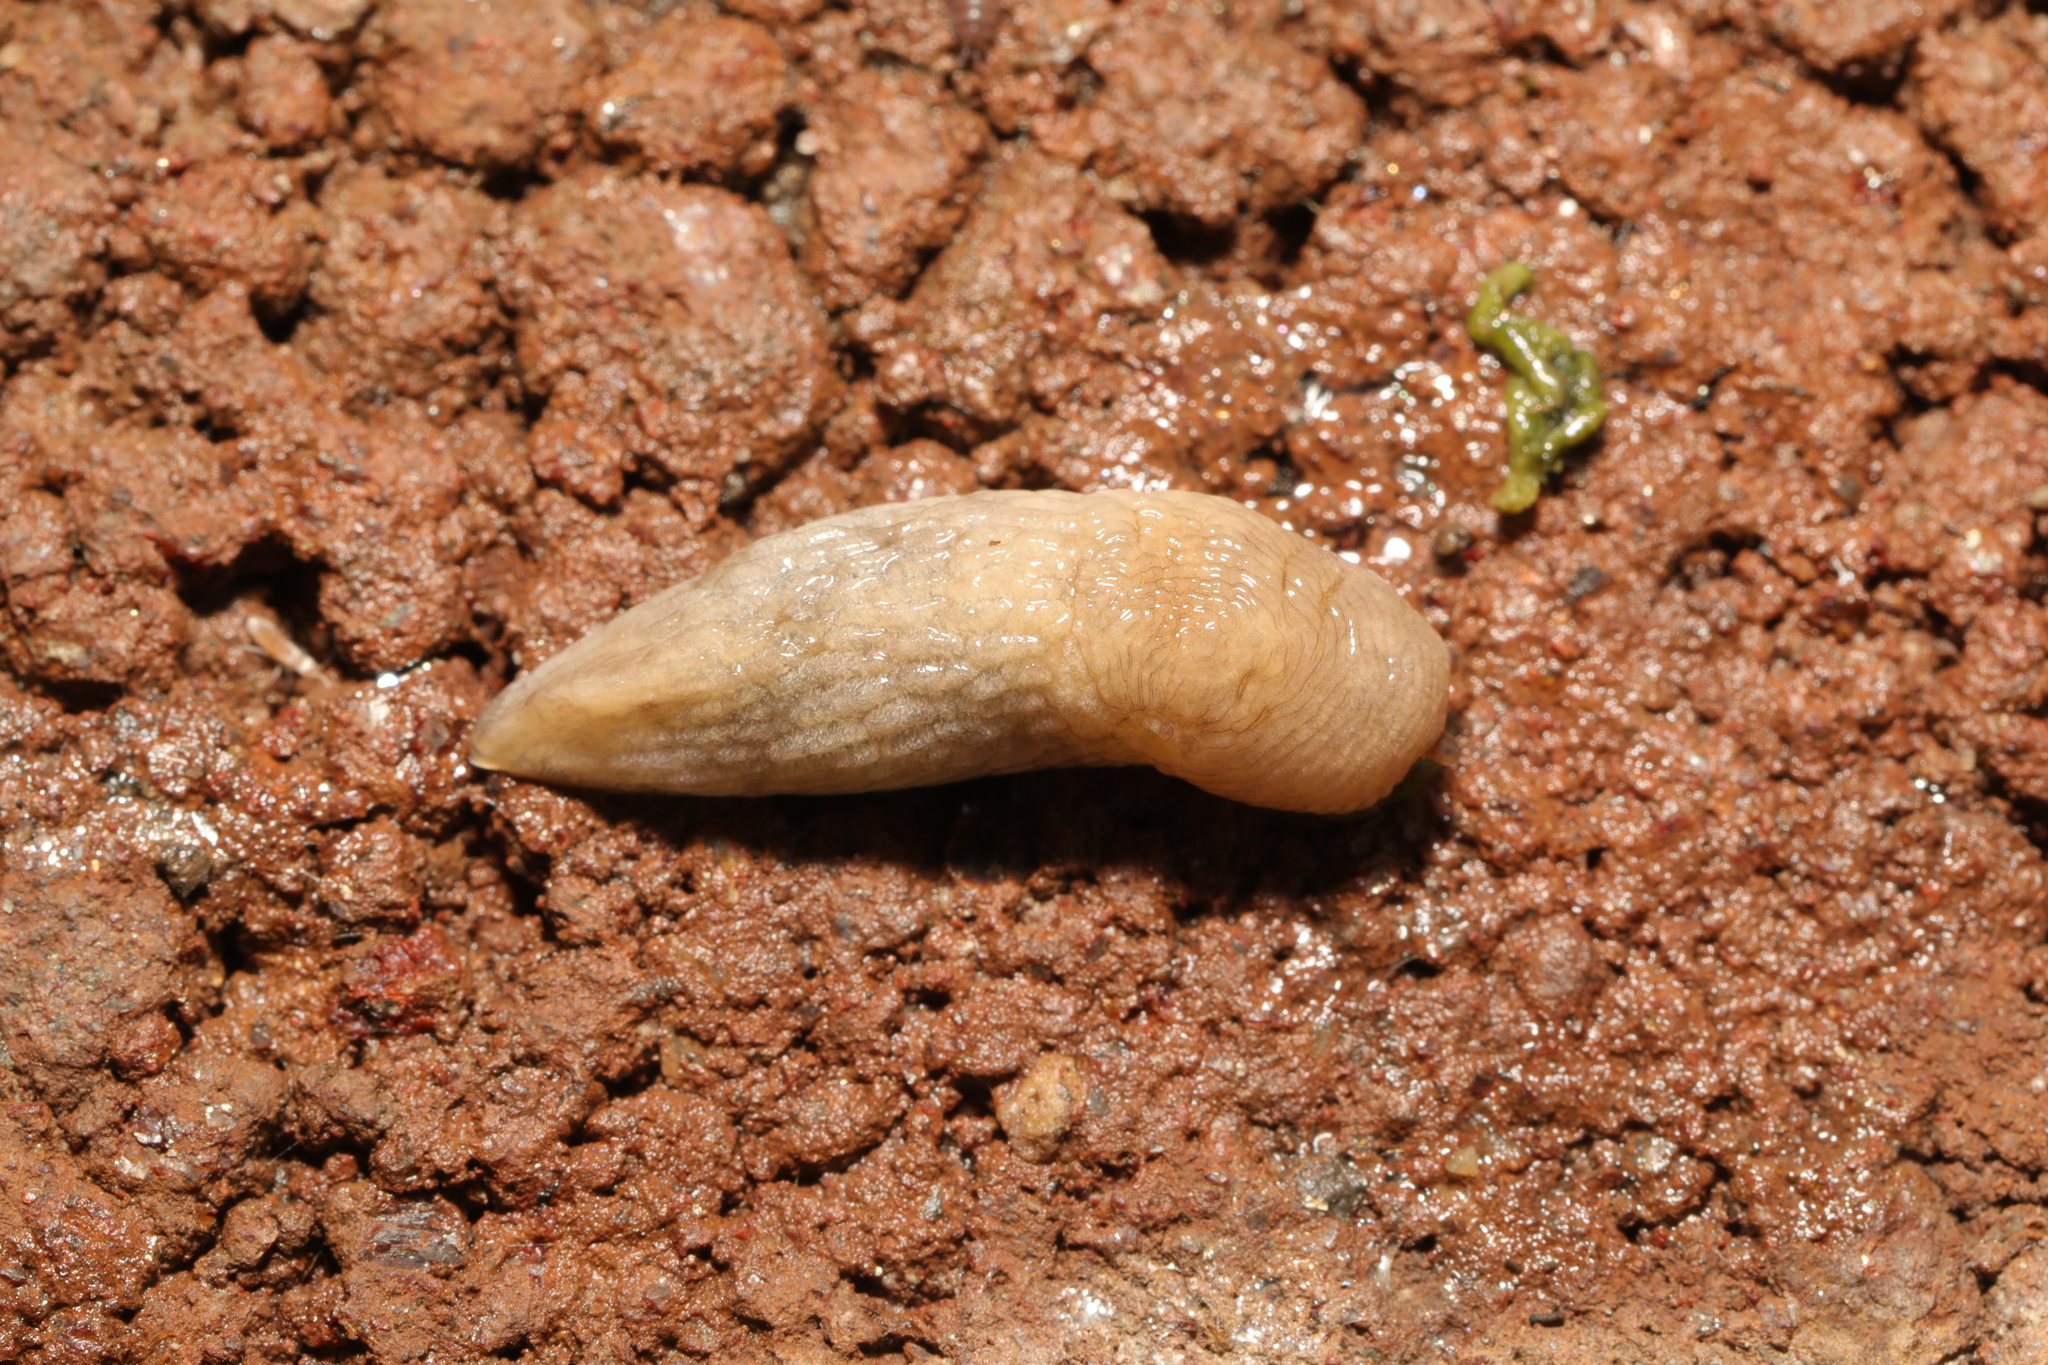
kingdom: Animalia
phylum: Mollusca
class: Gastropoda
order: Stylommatophora
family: Agriolimacidae
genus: Deroceras
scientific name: Deroceras reticulatum
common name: Gray field slug
